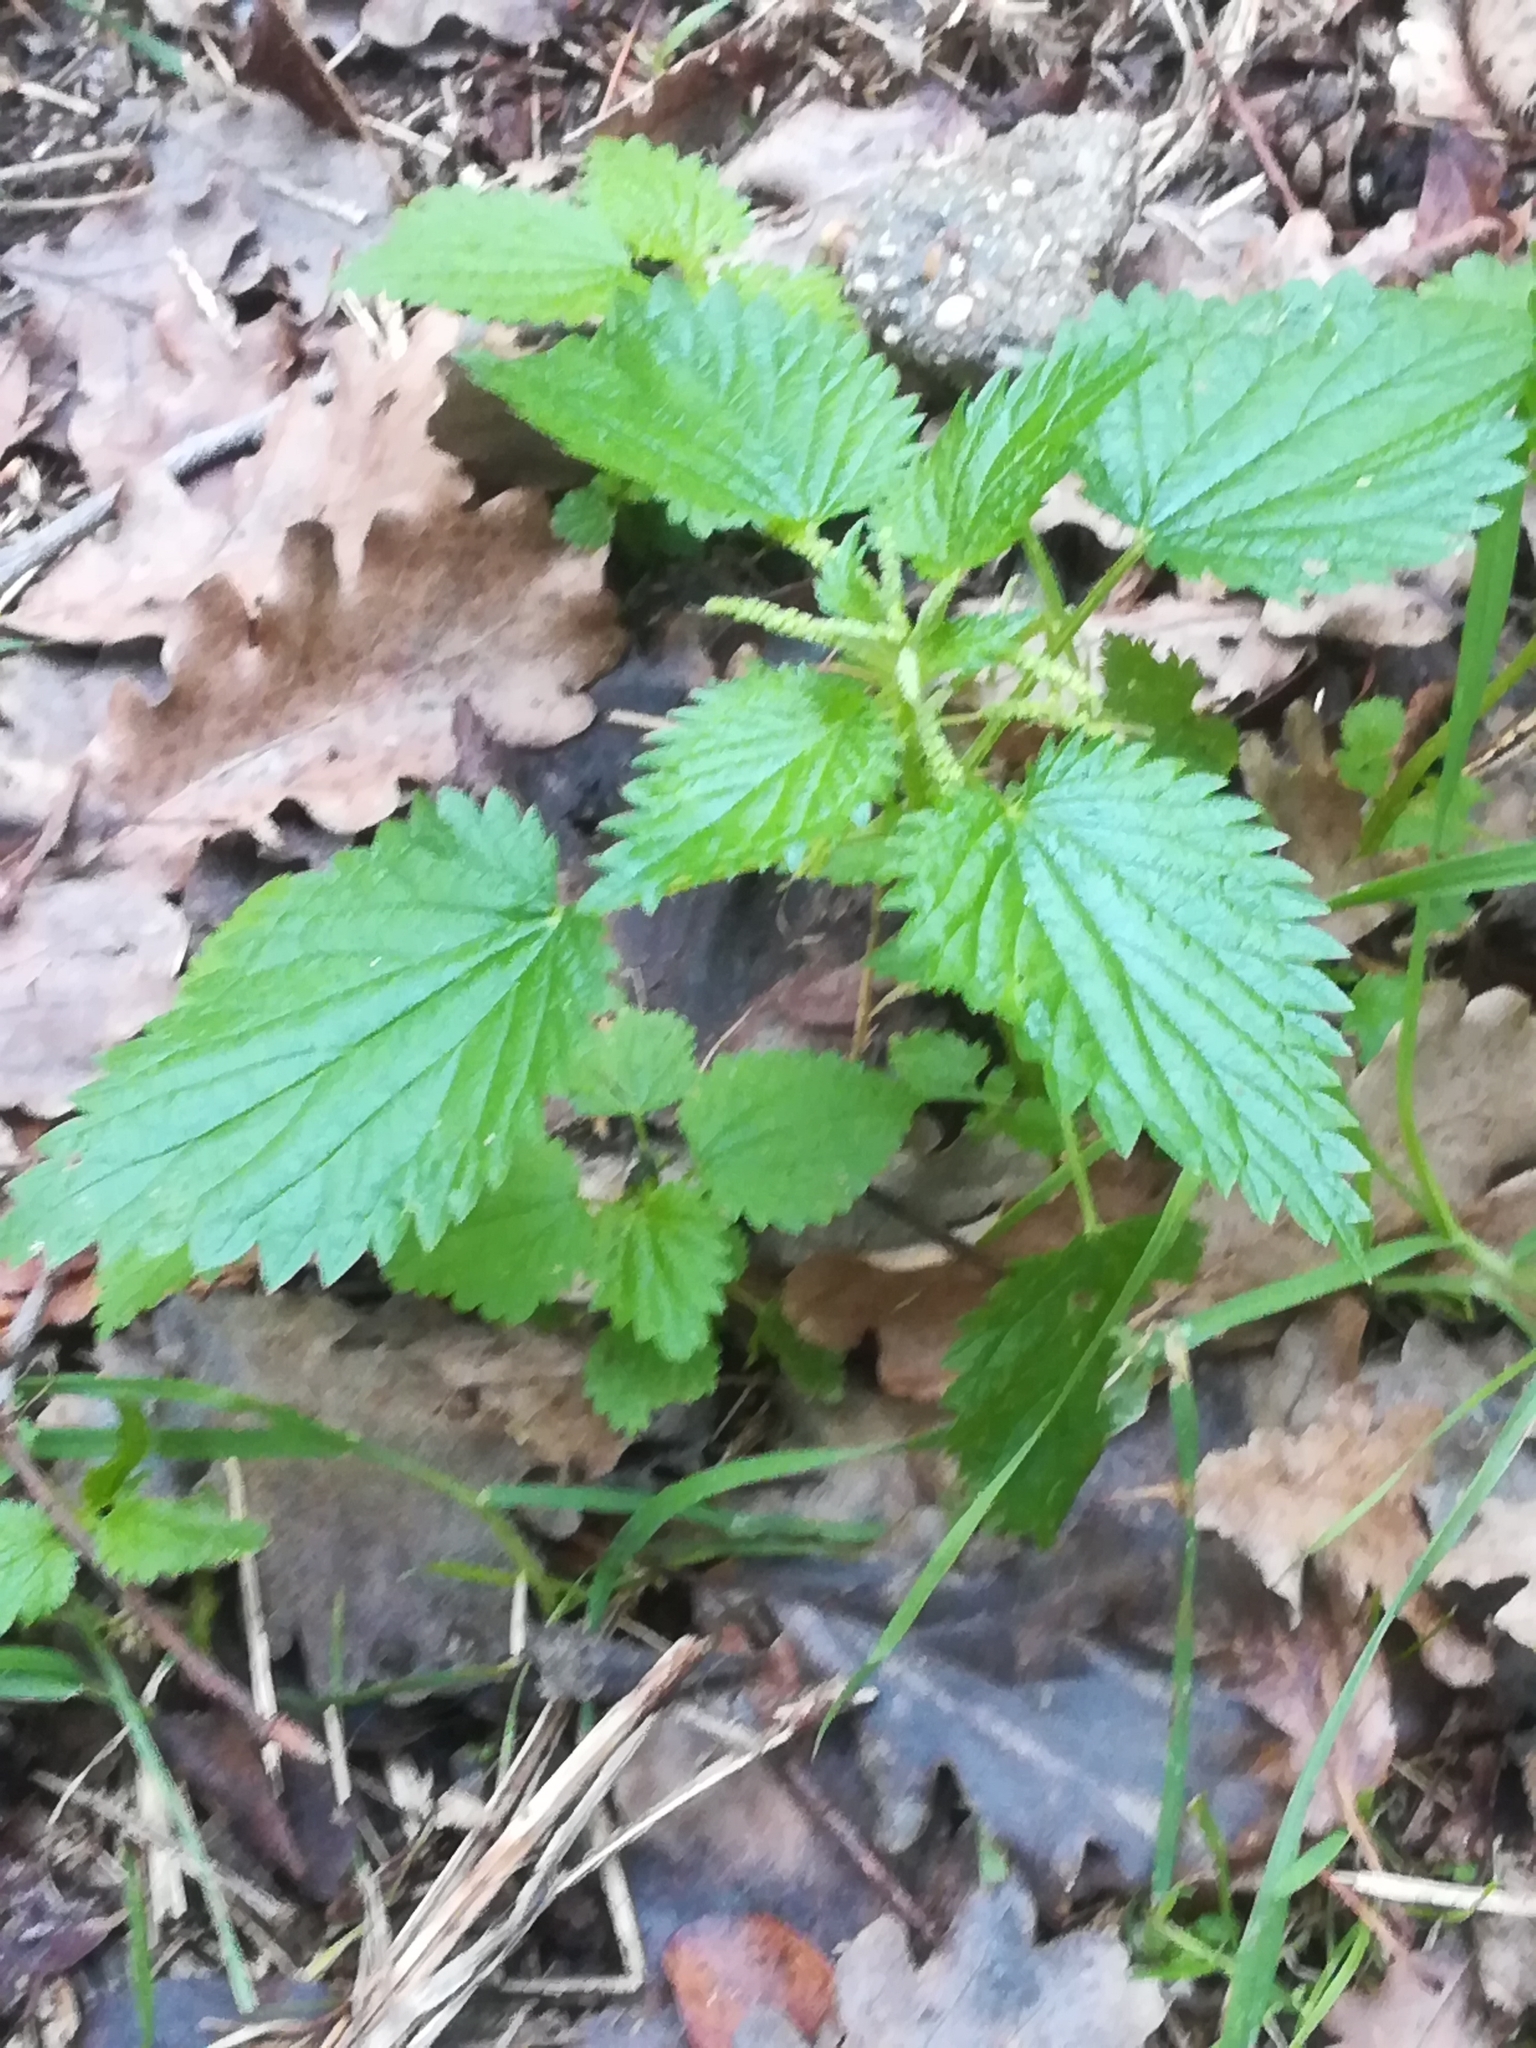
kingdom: Plantae
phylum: Tracheophyta
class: Magnoliopsida
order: Rosales
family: Urticaceae
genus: Urtica
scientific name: Urtica membranacea
